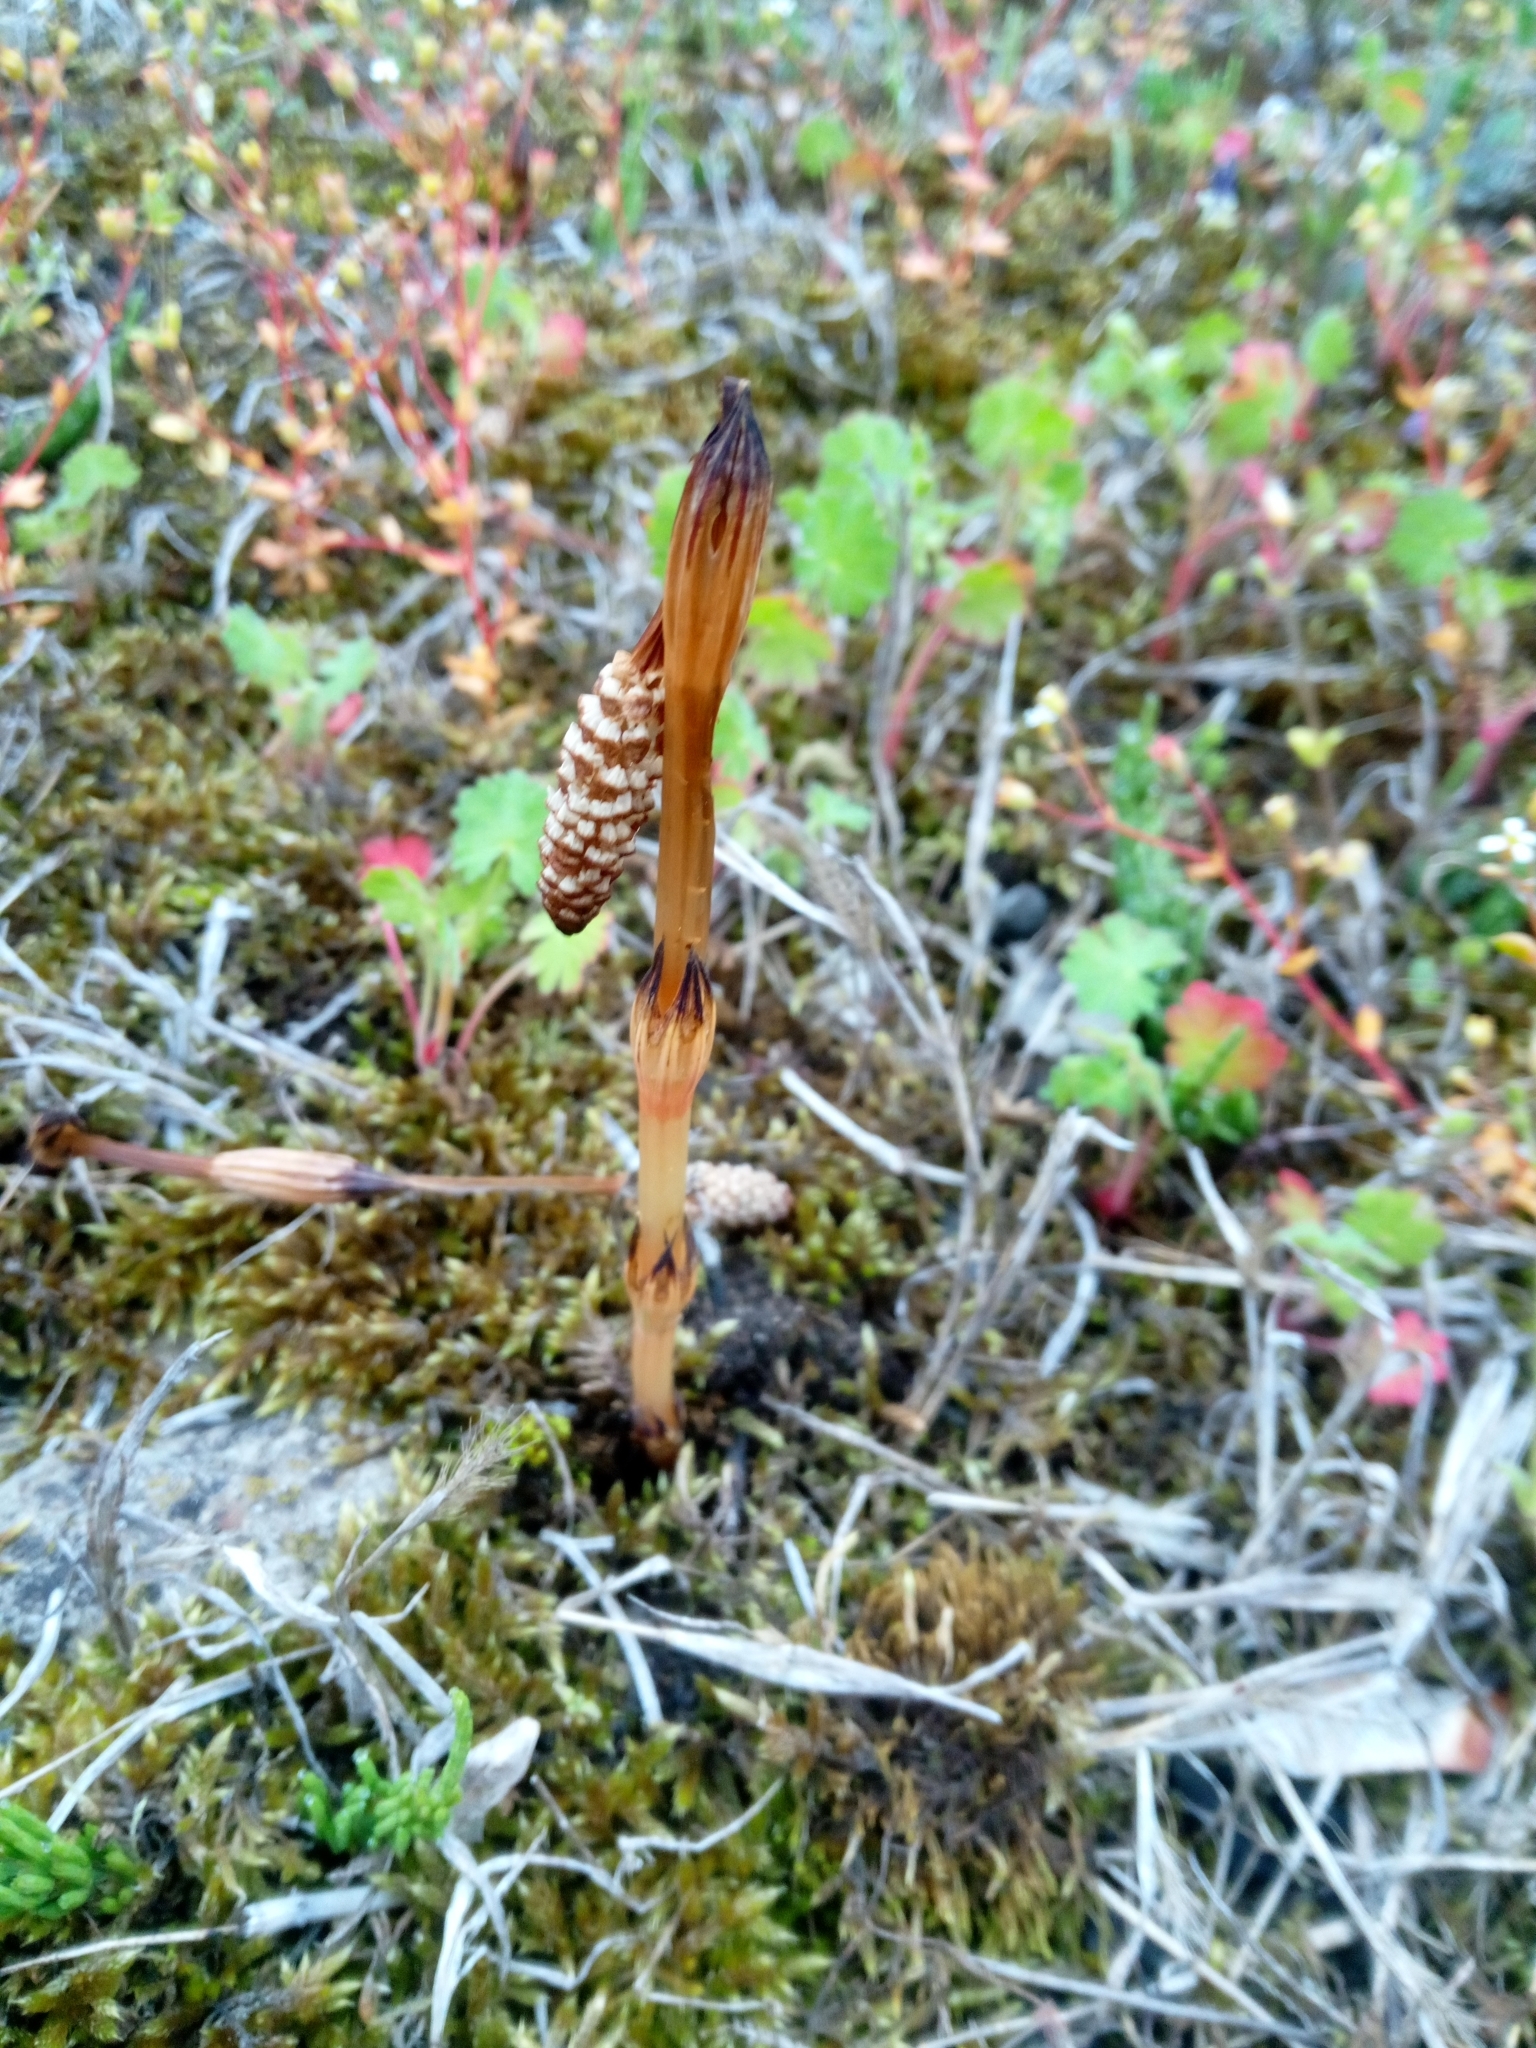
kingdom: Plantae
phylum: Tracheophyta
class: Polypodiopsida
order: Equisetales
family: Equisetaceae
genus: Equisetum
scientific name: Equisetum arvense
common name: Field horsetail
